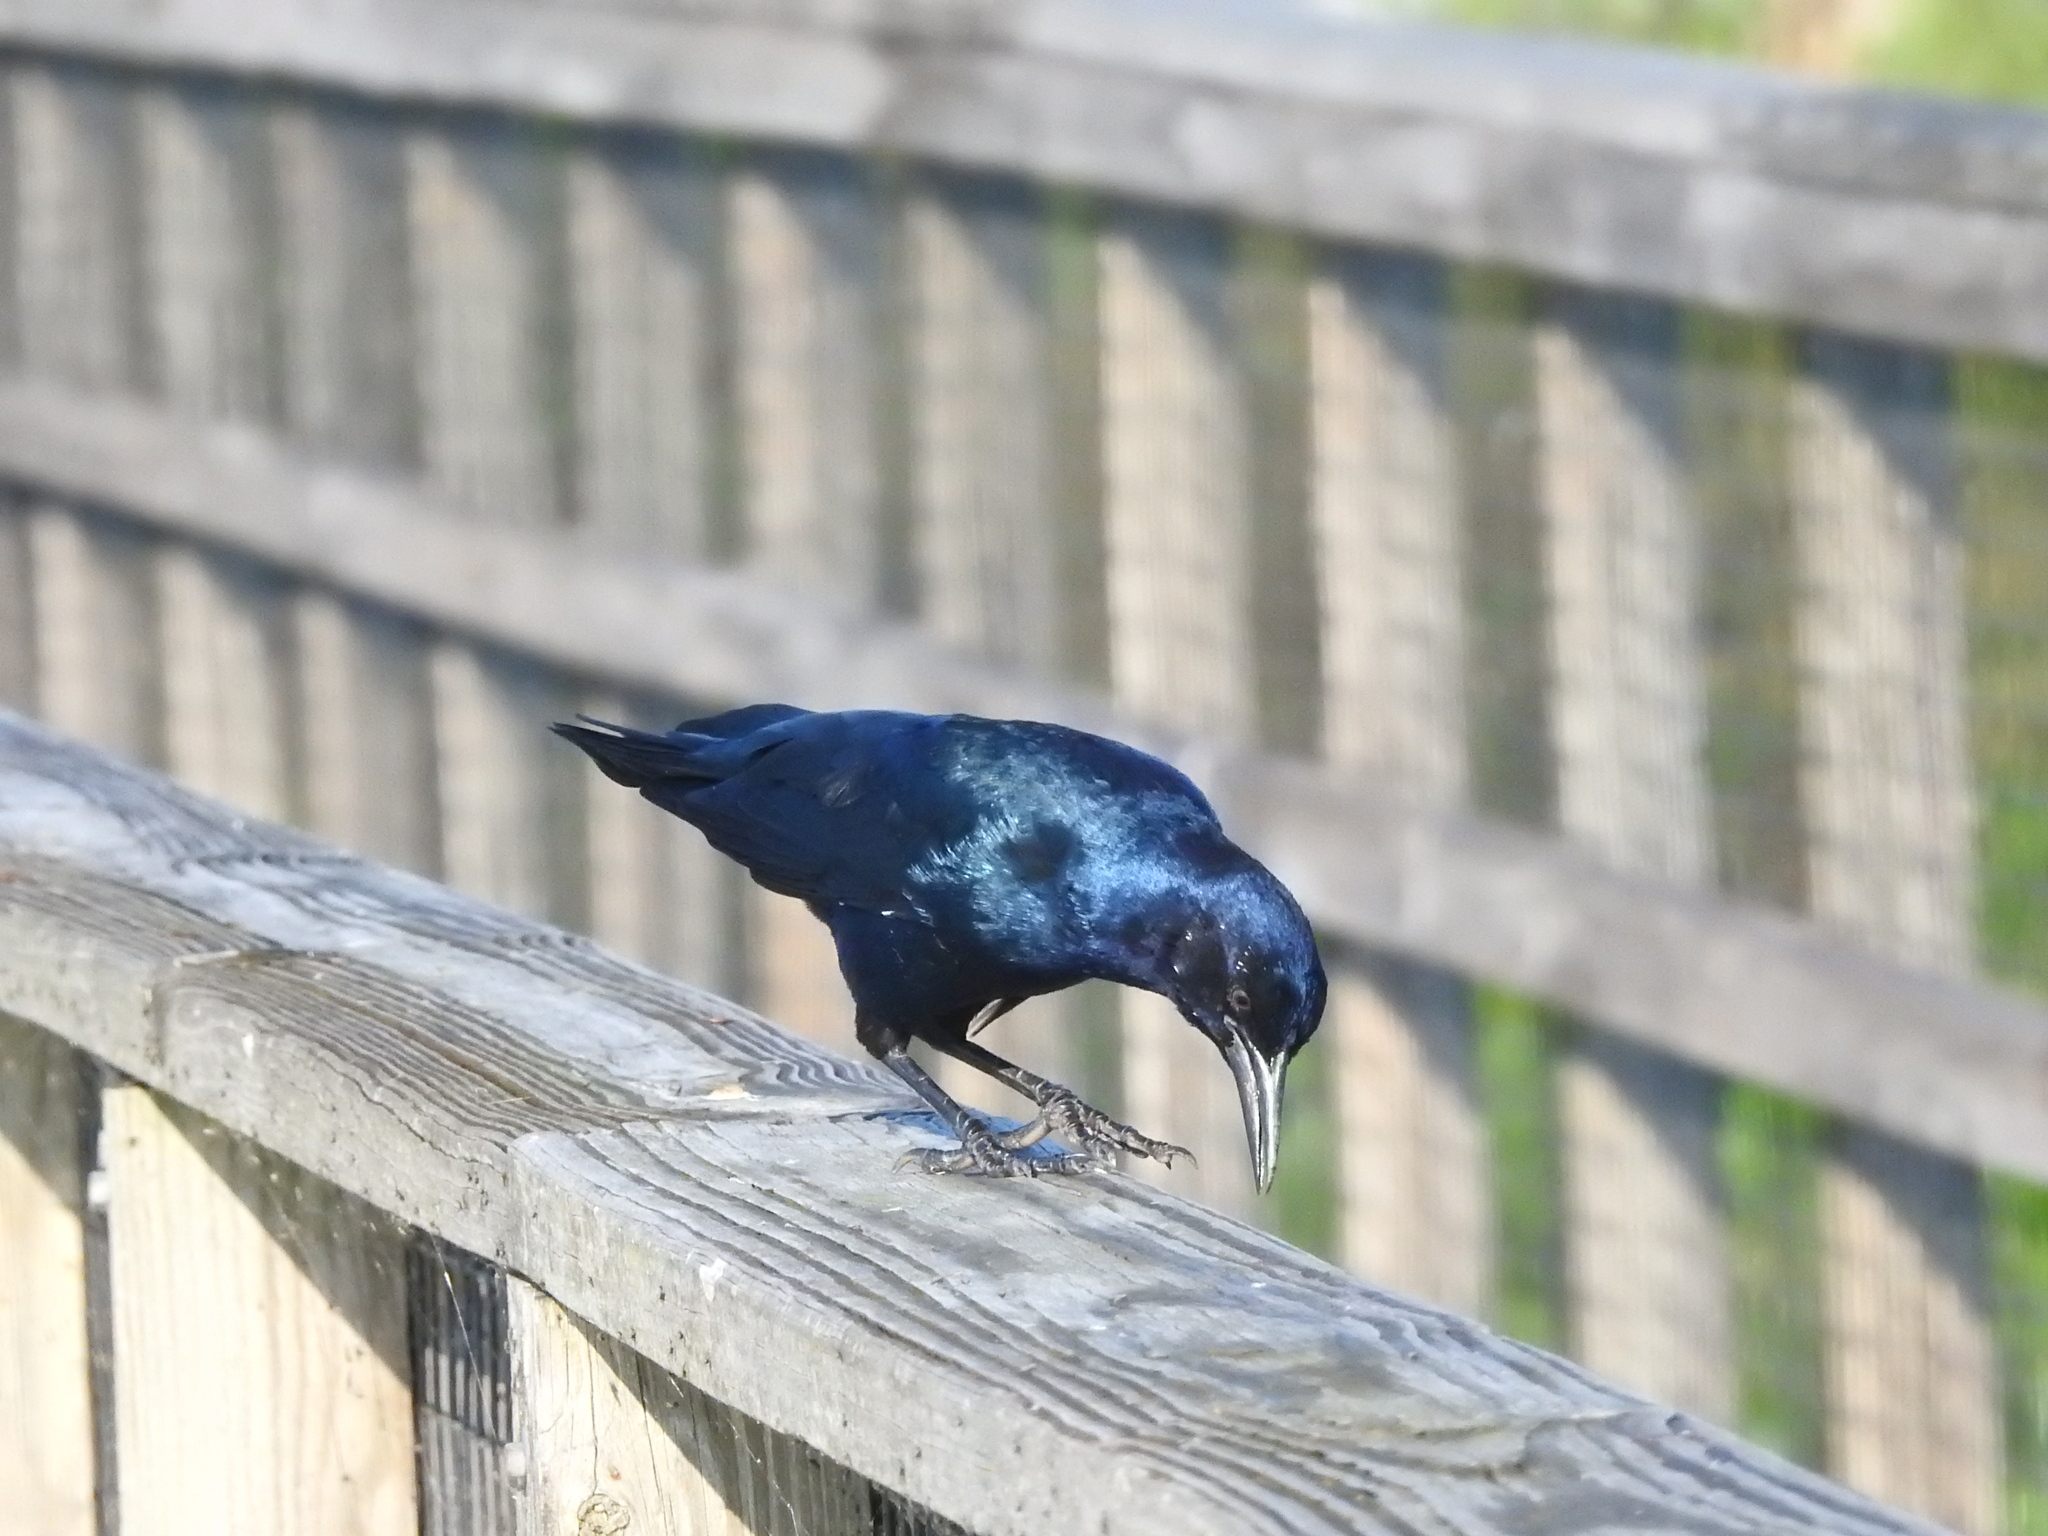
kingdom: Animalia
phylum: Chordata
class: Aves
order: Passeriformes
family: Icteridae
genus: Quiscalus
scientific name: Quiscalus major
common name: Boat-tailed grackle
